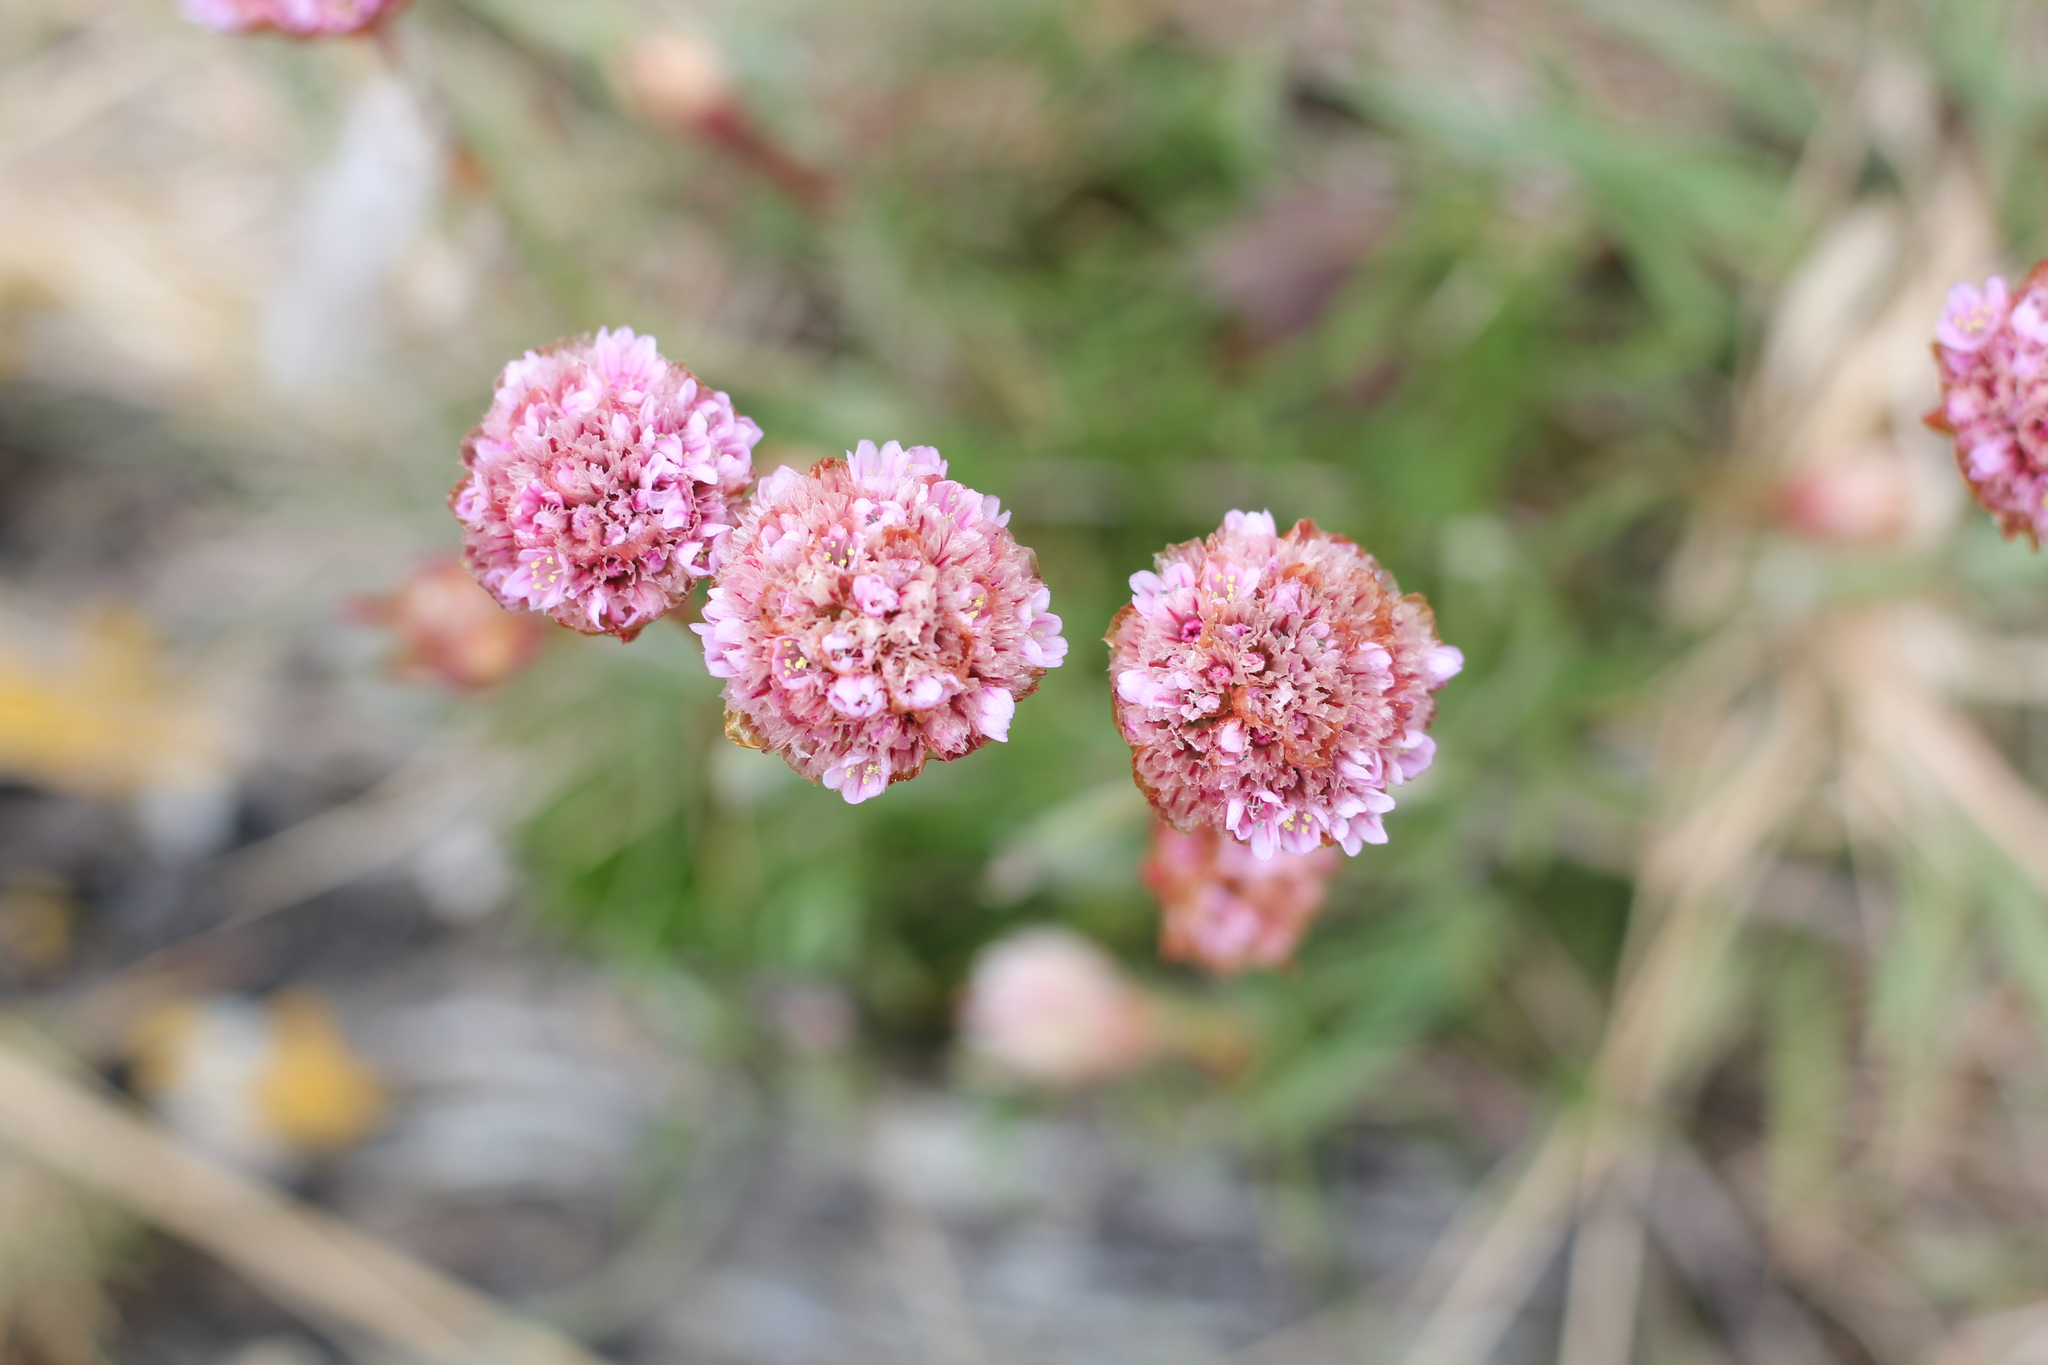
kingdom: Plantae
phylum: Tracheophyta
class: Magnoliopsida
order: Caryophyllales
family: Plumbaginaceae
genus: Armeria
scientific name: Armeria curvifolia
